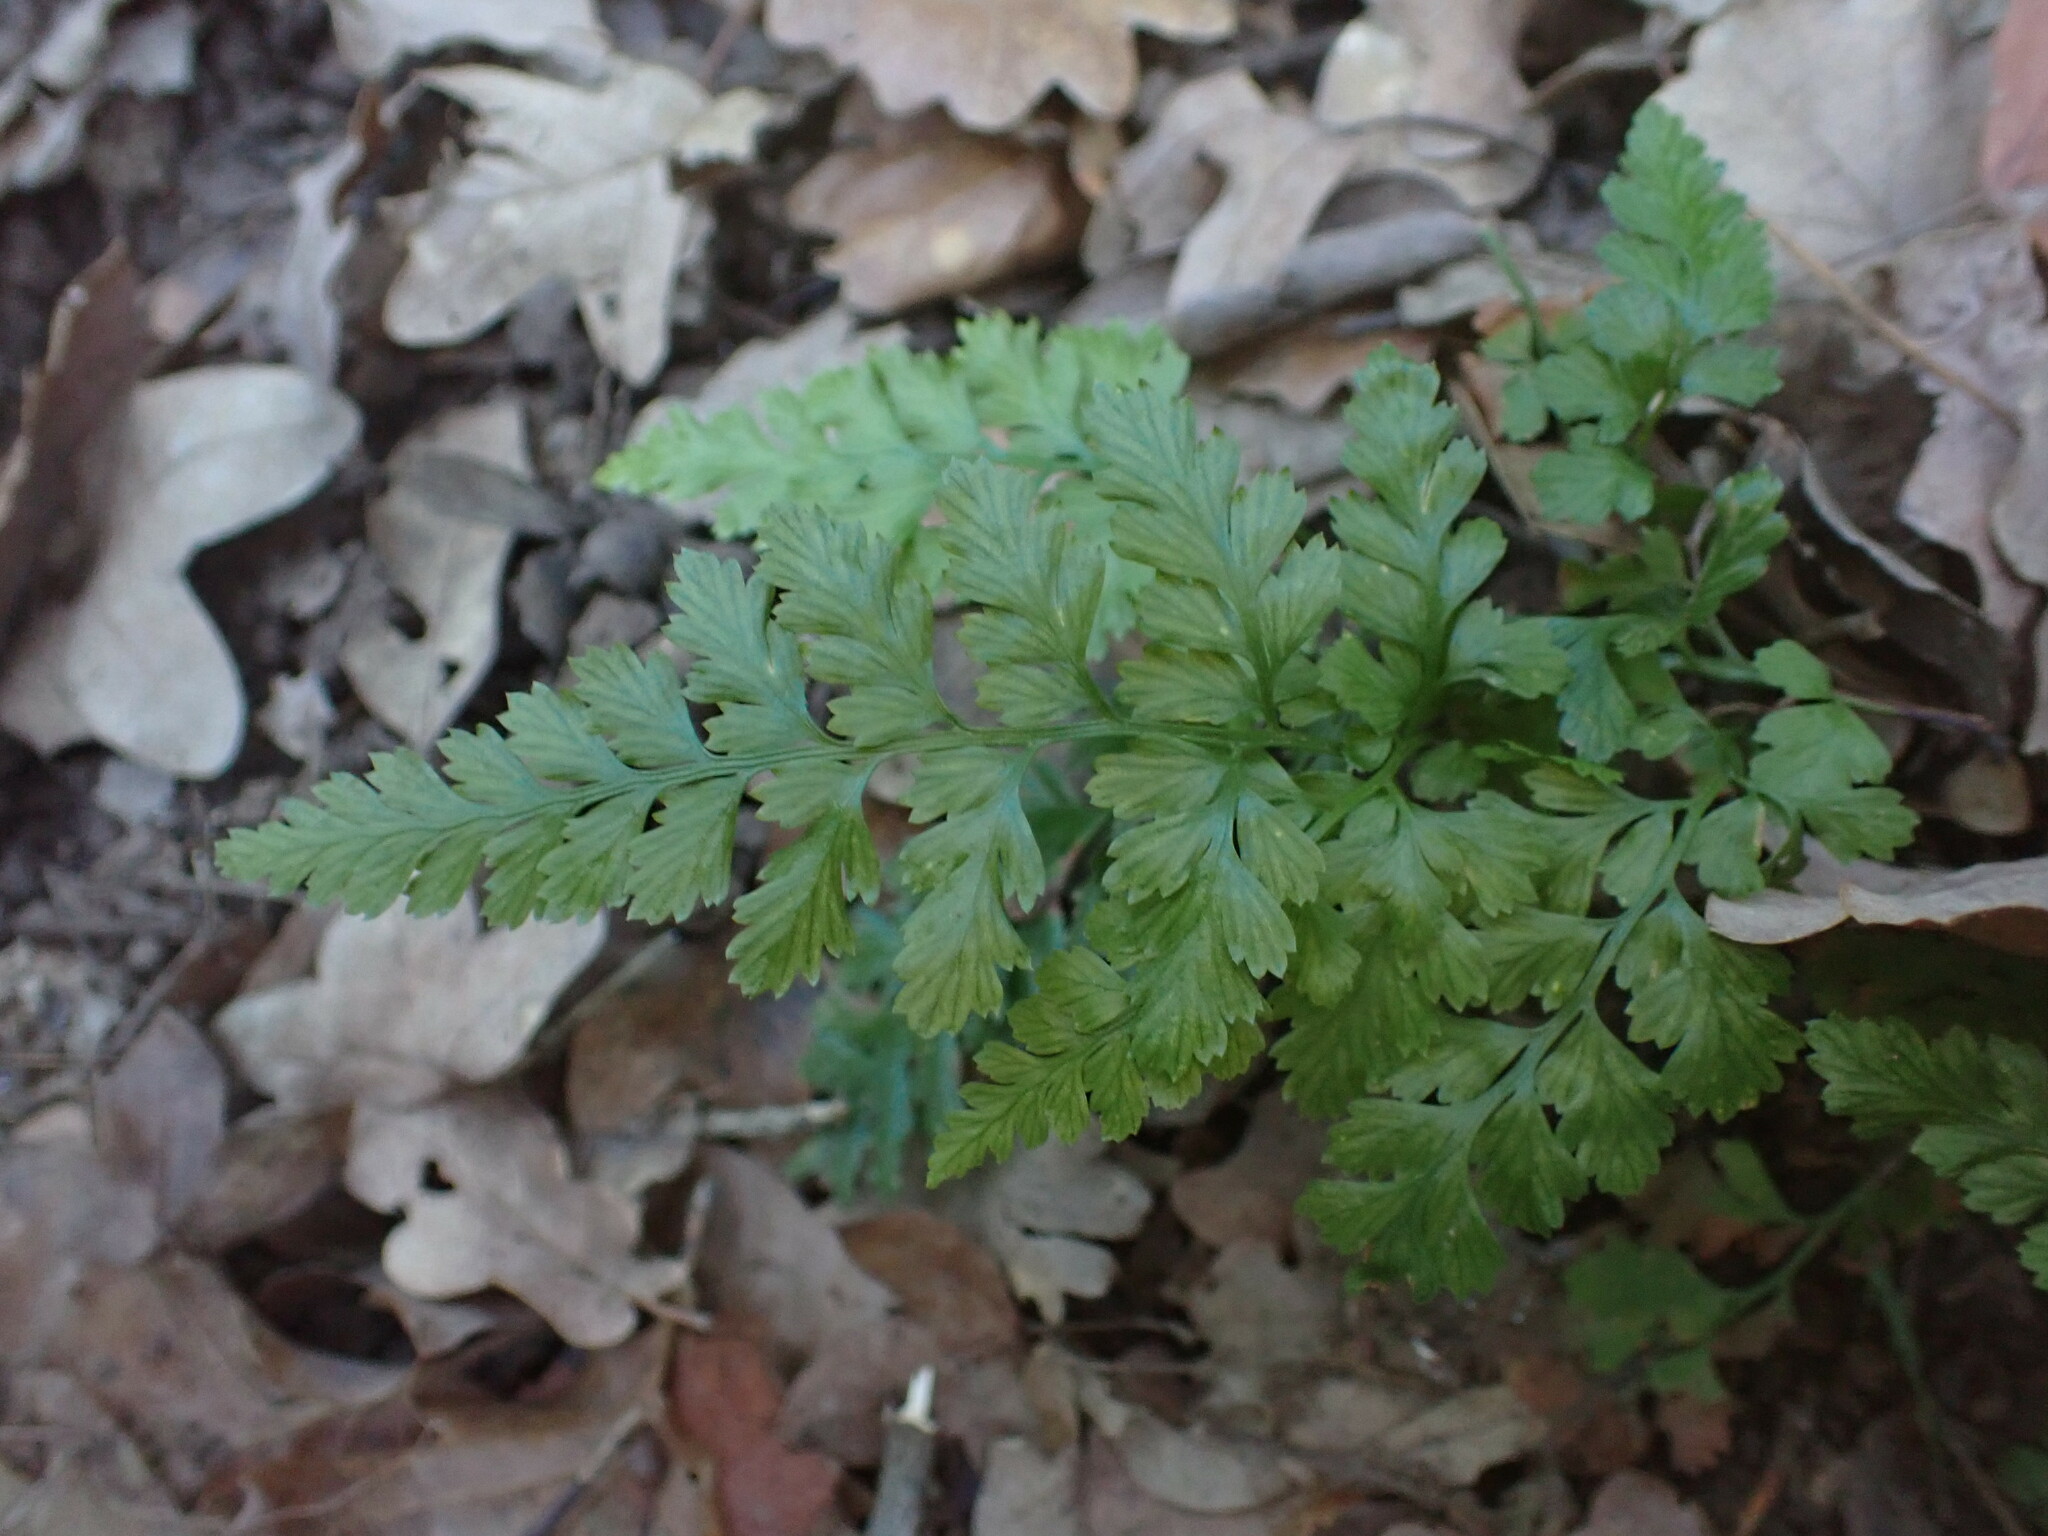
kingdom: Plantae
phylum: Tracheophyta
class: Polypodiopsida
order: Polypodiales
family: Aspleniaceae
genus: Asplenium
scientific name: Asplenium adiantum-nigrum
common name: Black spleenwort
